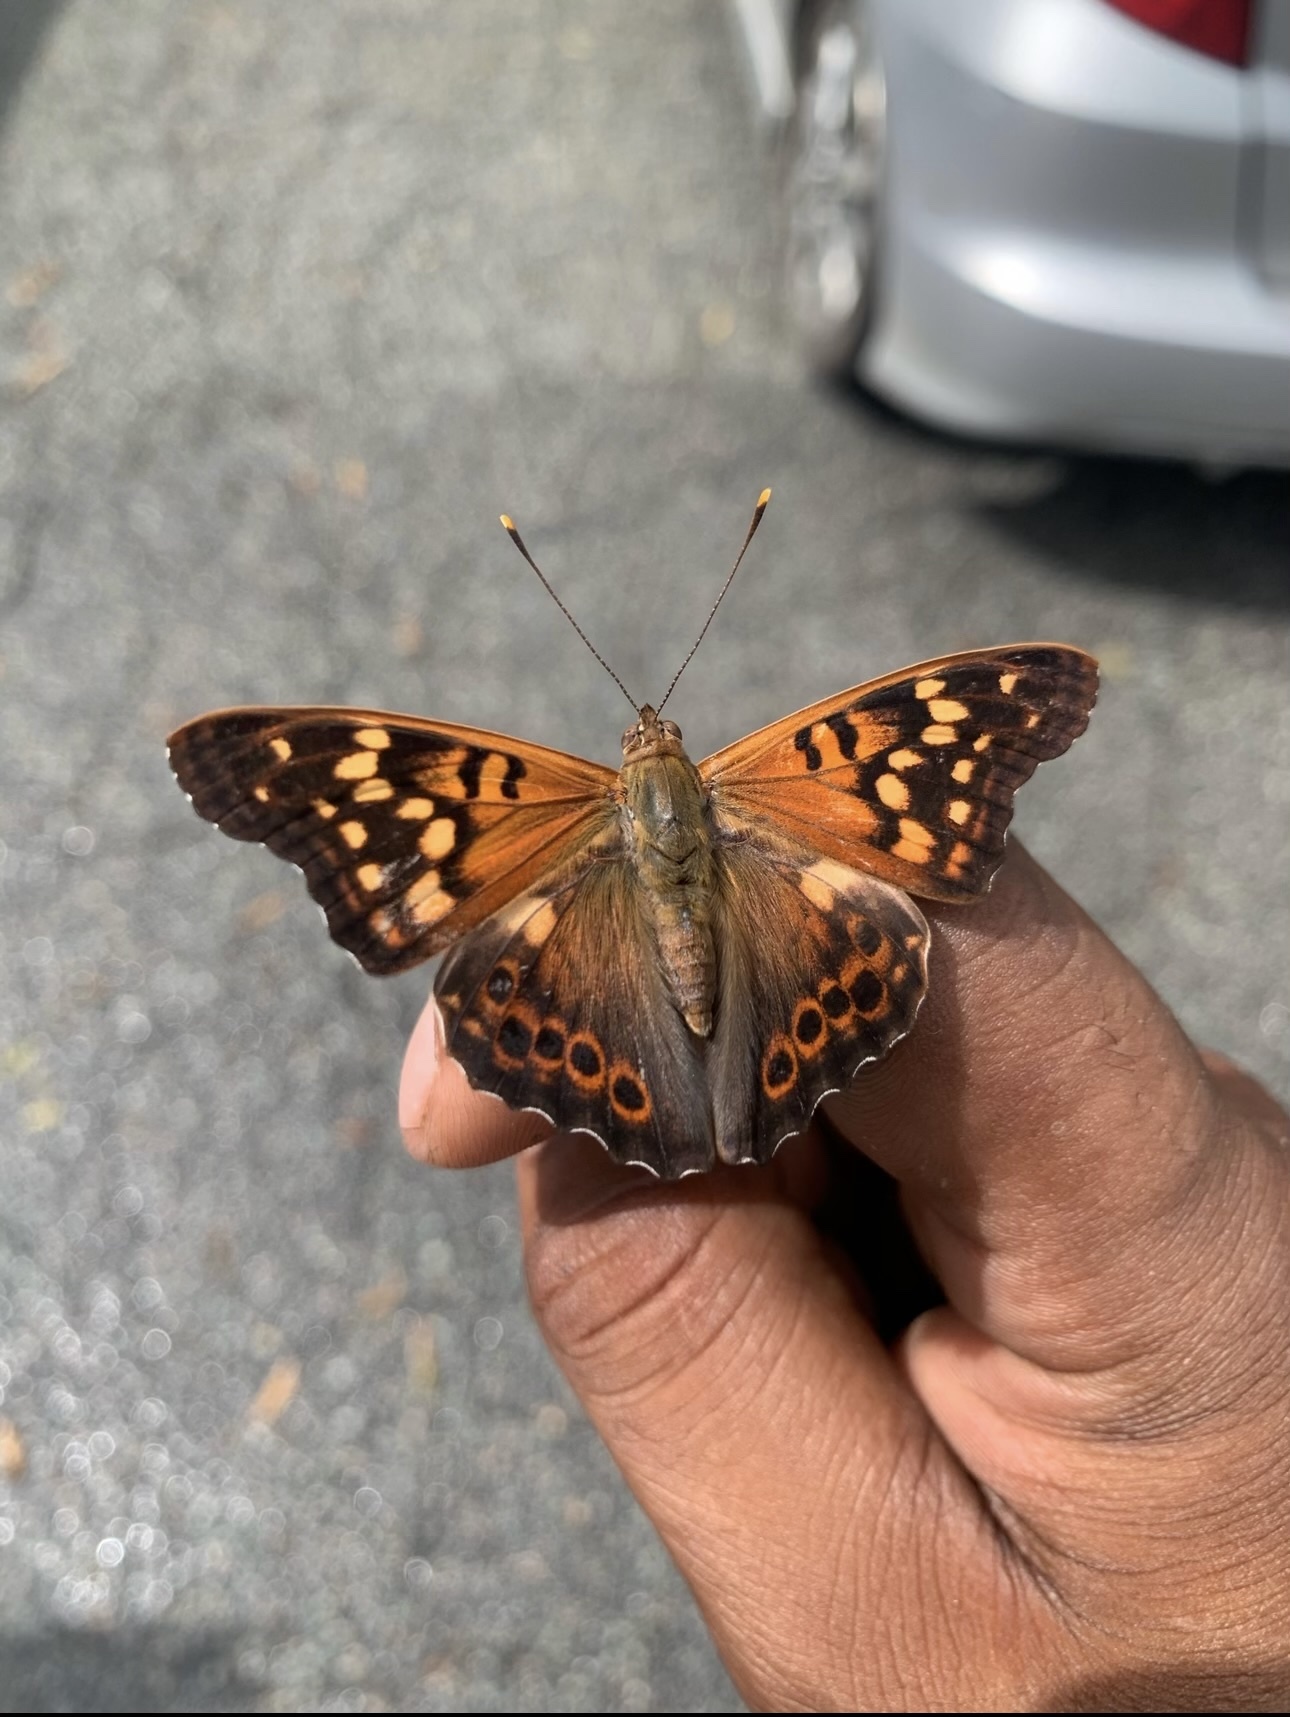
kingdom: Animalia
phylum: Arthropoda
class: Insecta
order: Lepidoptera
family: Nymphalidae
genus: Asterocampa
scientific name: Asterocampa clyton
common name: Tawny emperor
